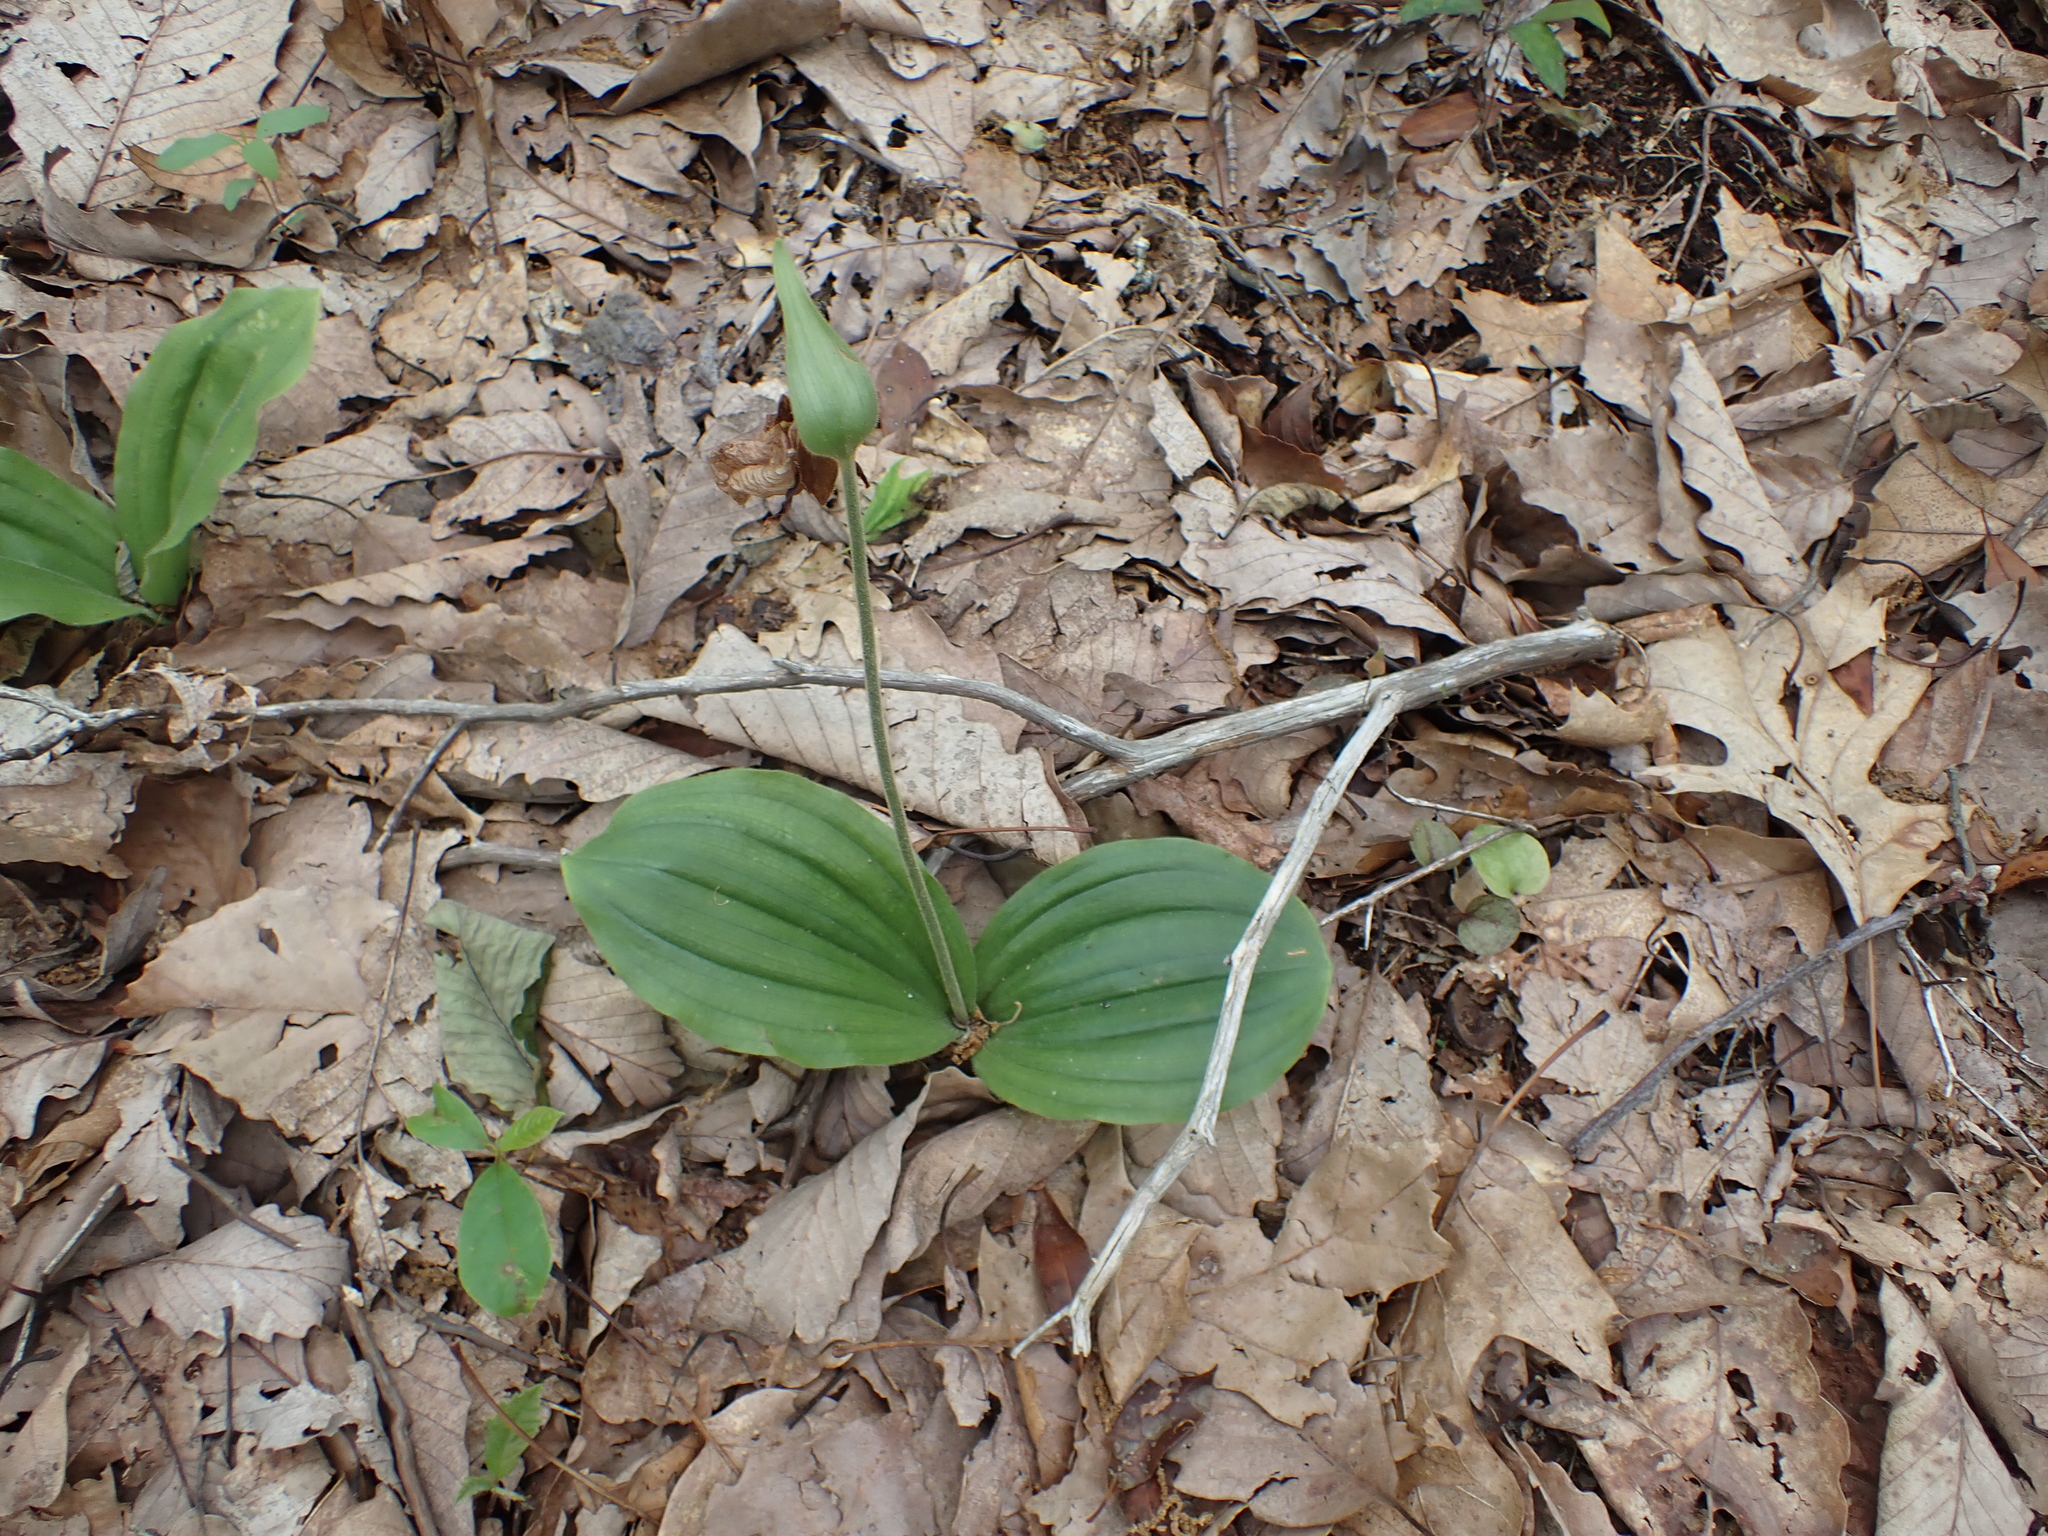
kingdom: Plantae
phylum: Tracheophyta
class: Liliopsida
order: Asparagales
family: Orchidaceae
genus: Cypripedium
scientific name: Cypripedium acaule
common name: Pink lady's-slipper
